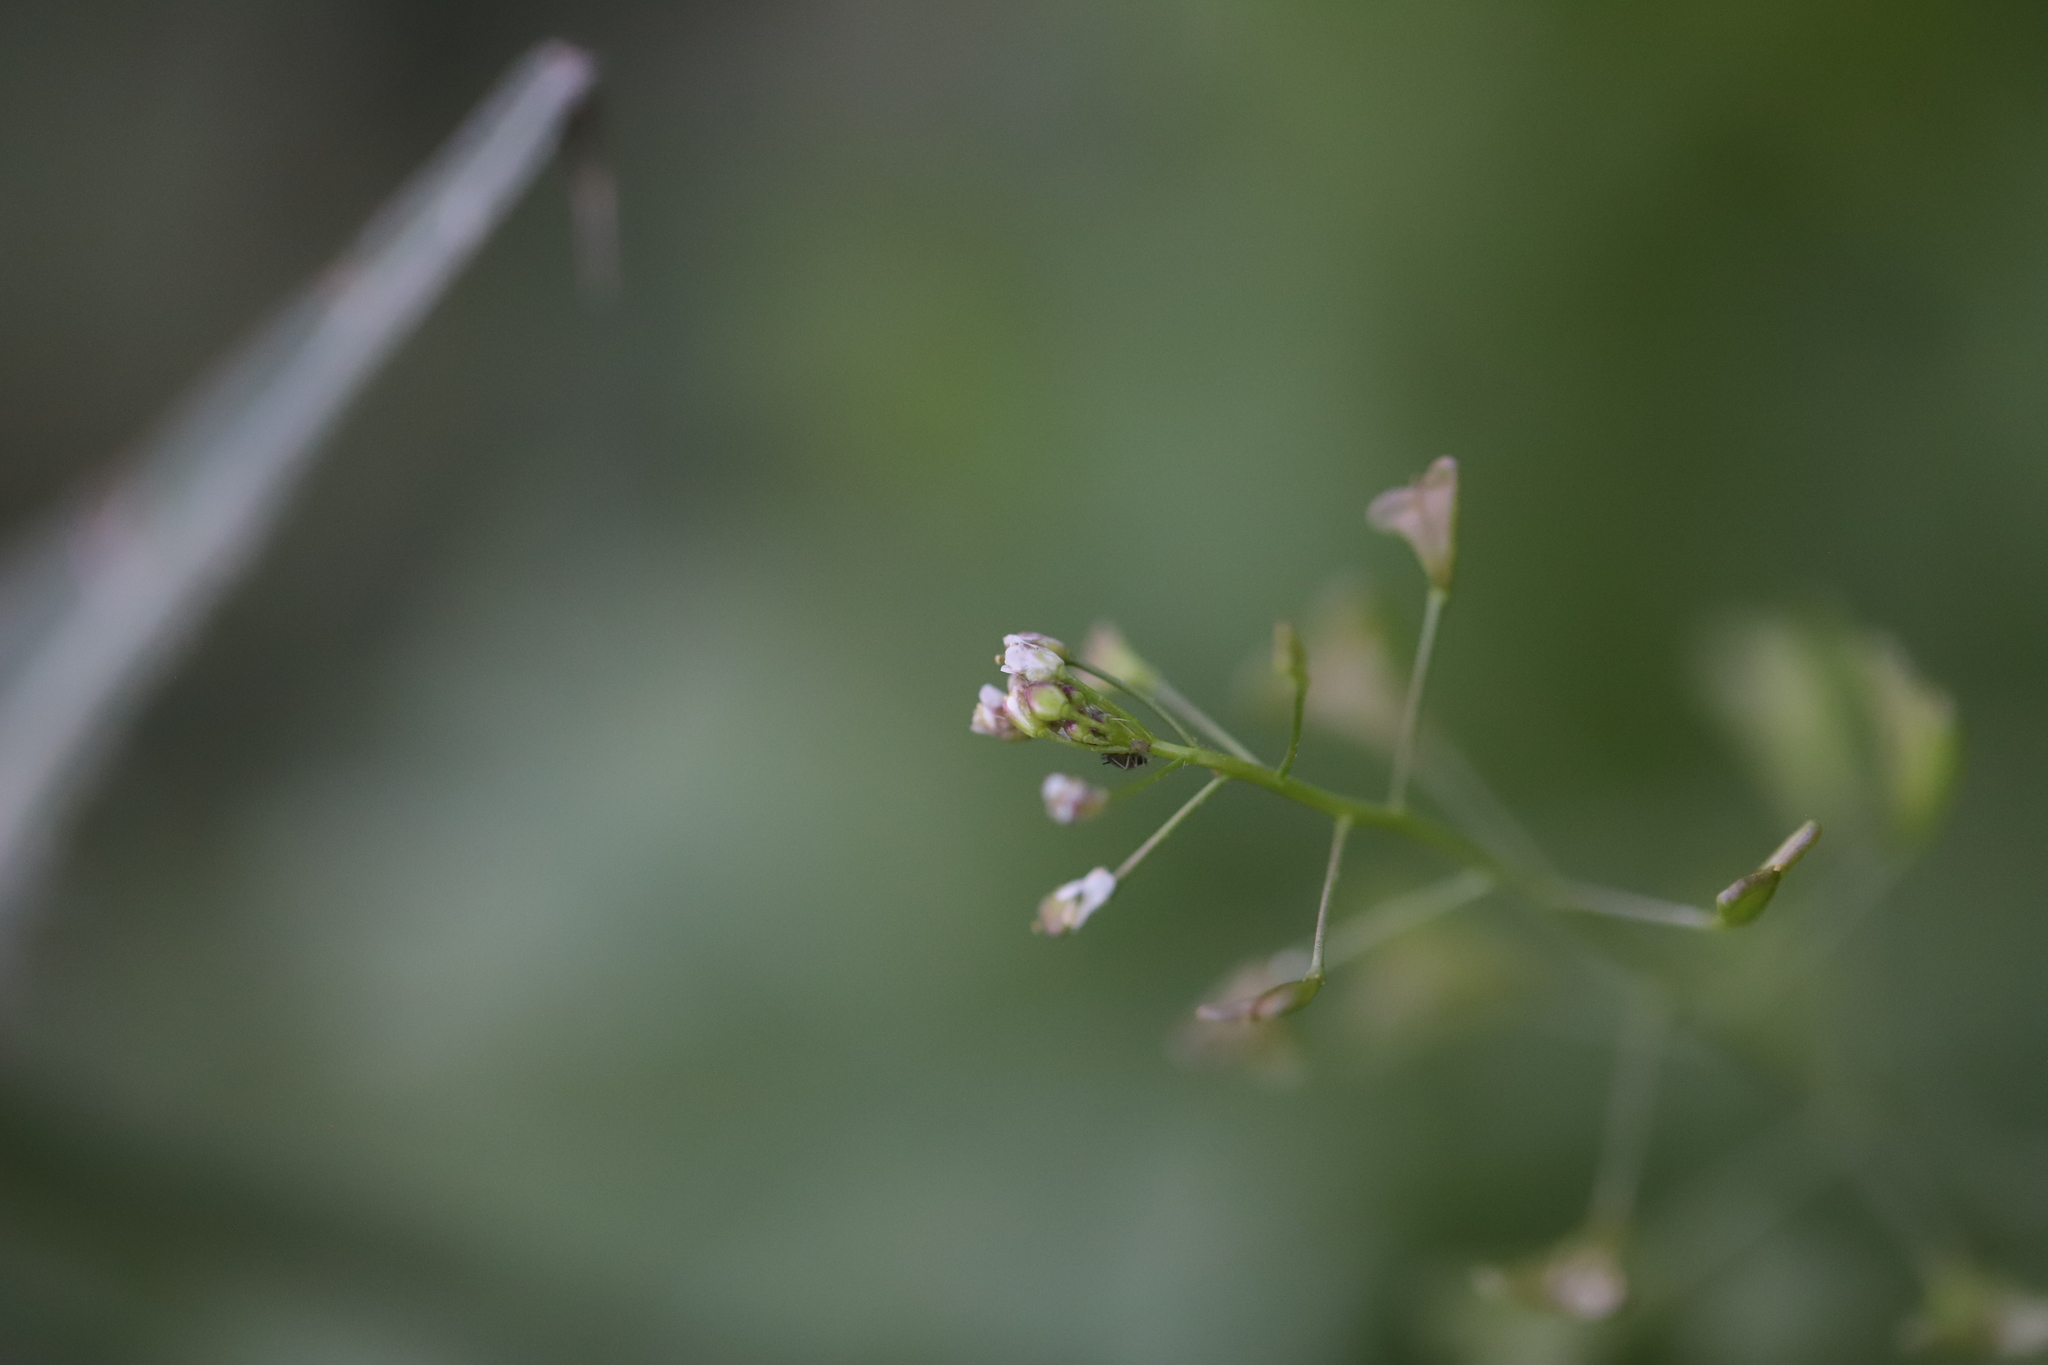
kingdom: Plantae
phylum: Tracheophyta
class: Magnoliopsida
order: Brassicales
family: Brassicaceae
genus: Capsella
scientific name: Capsella bursa-pastoris
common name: Shepherd's purse
